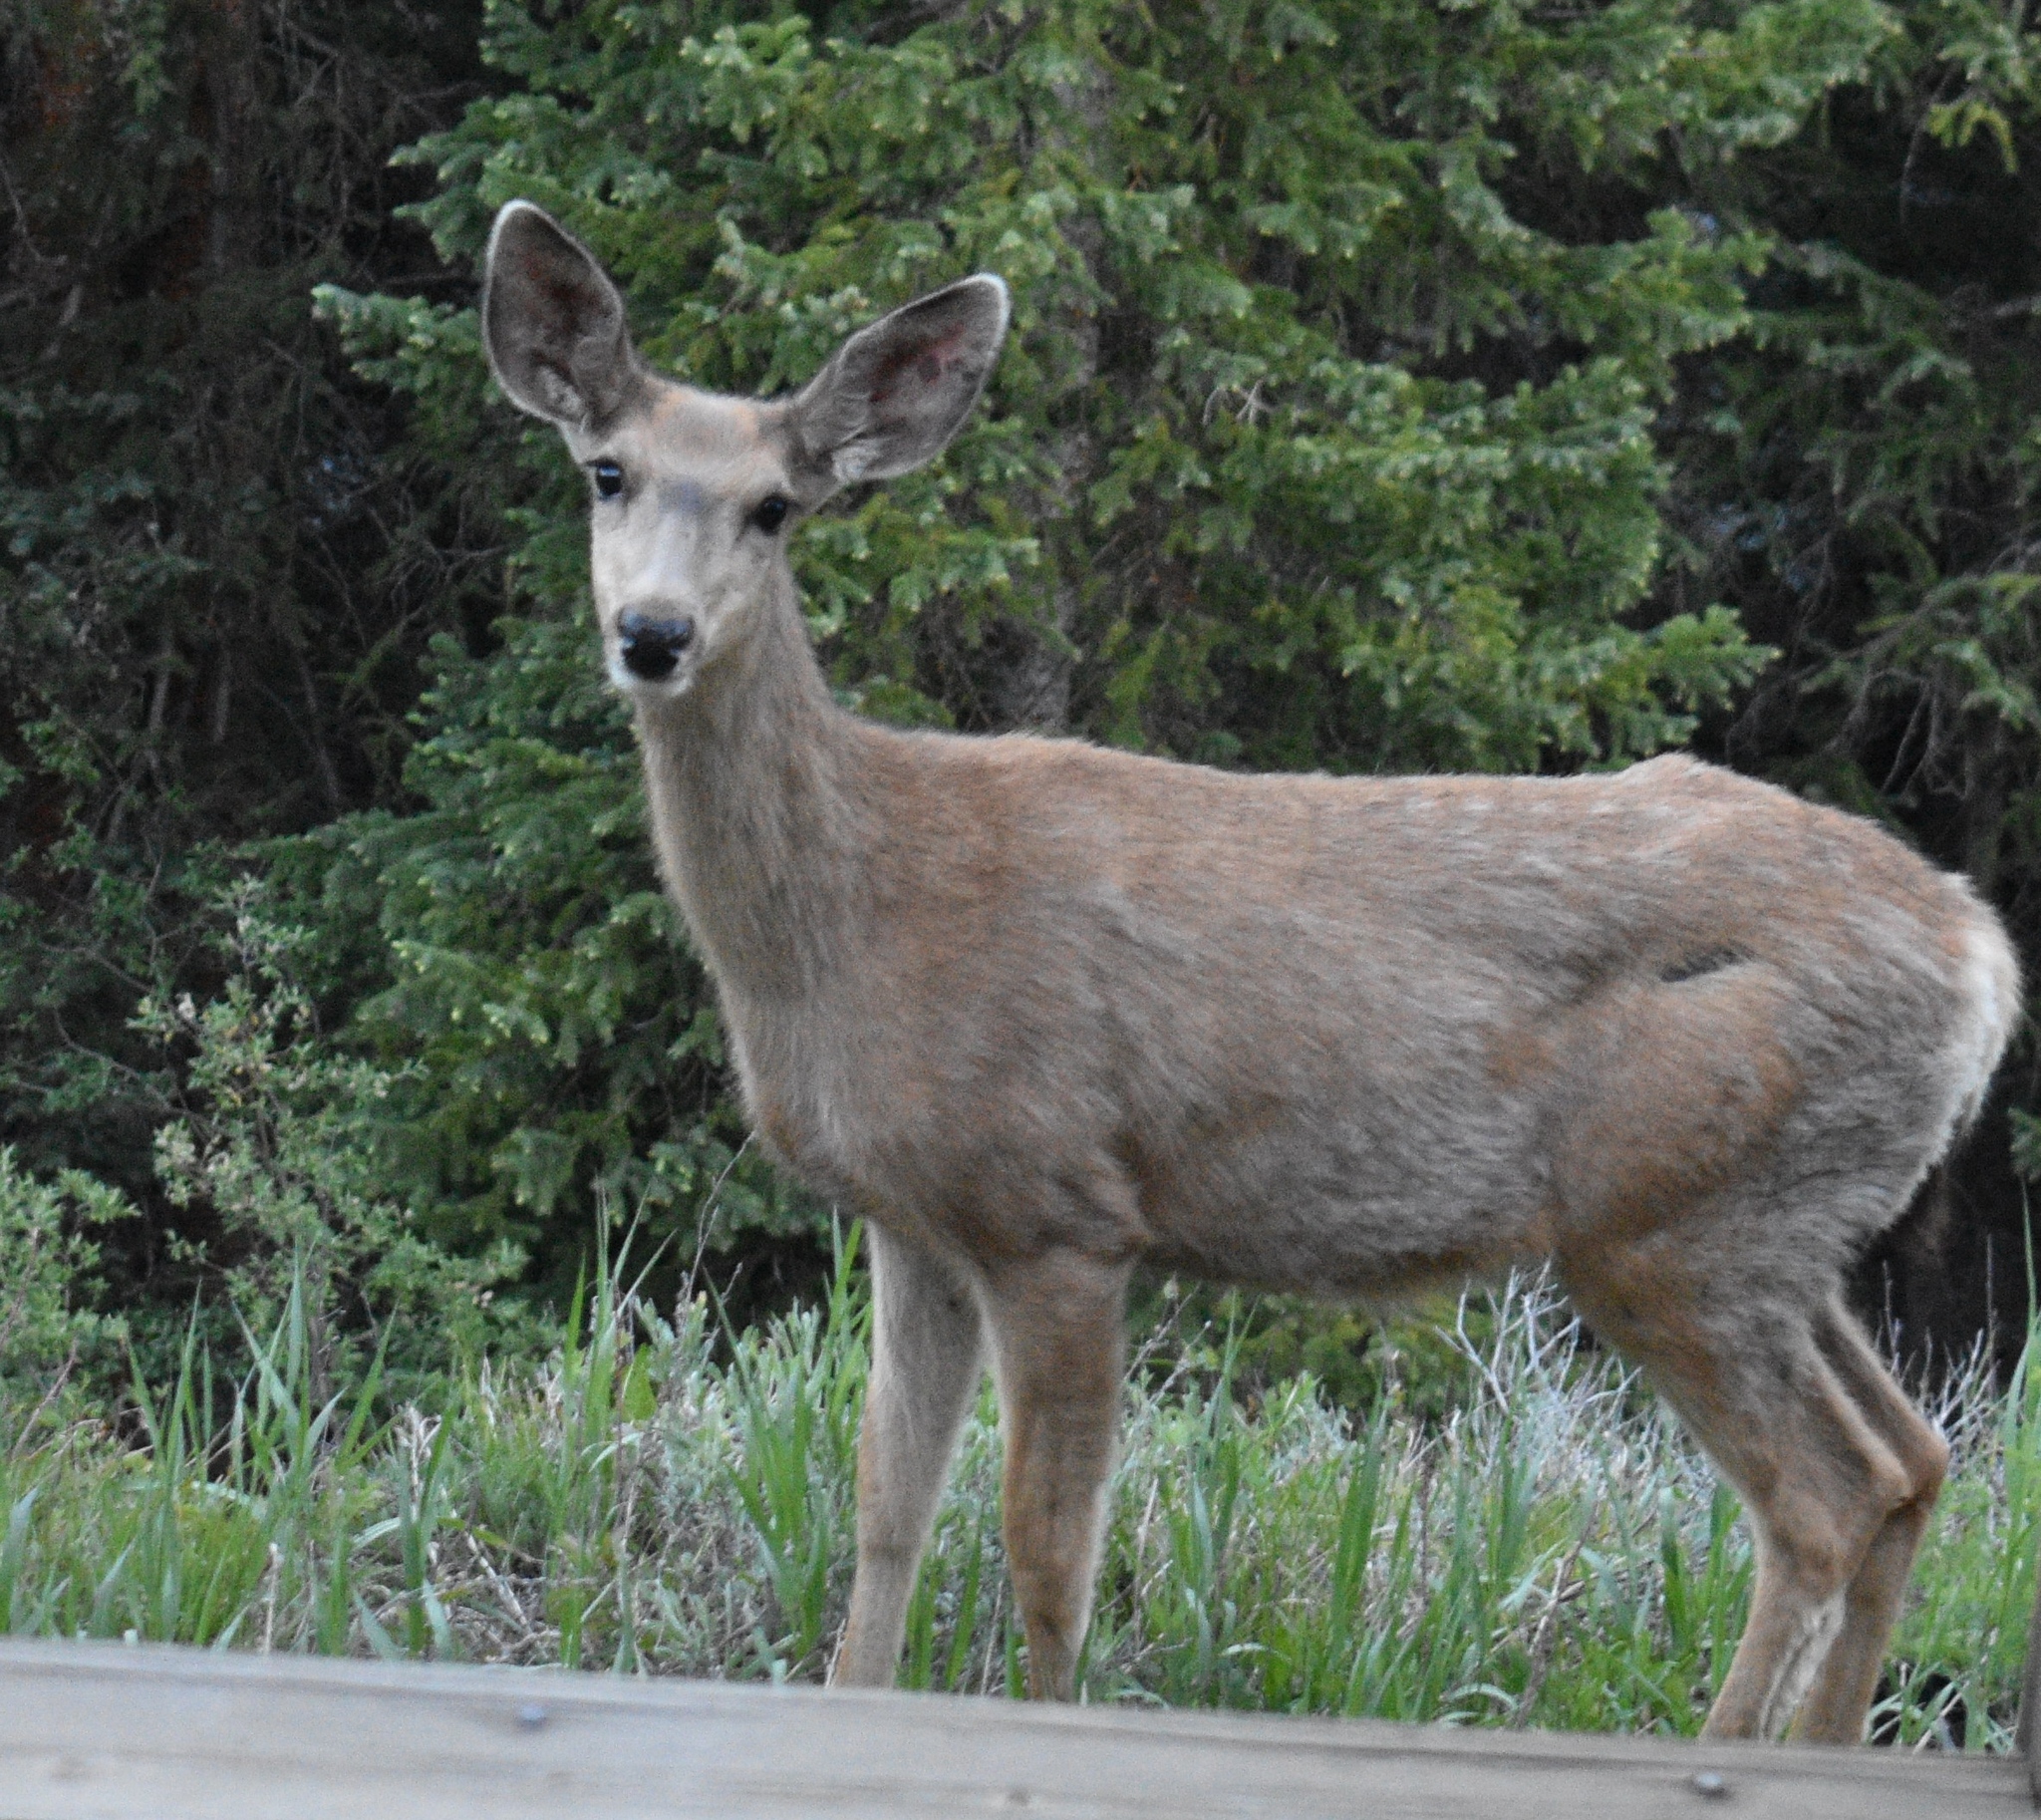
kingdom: Animalia
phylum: Chordata
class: Mammalia
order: Artiodactyla
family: Cervidae
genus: Odocoileus
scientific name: Odocoileus hemionus
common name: Mule deer
